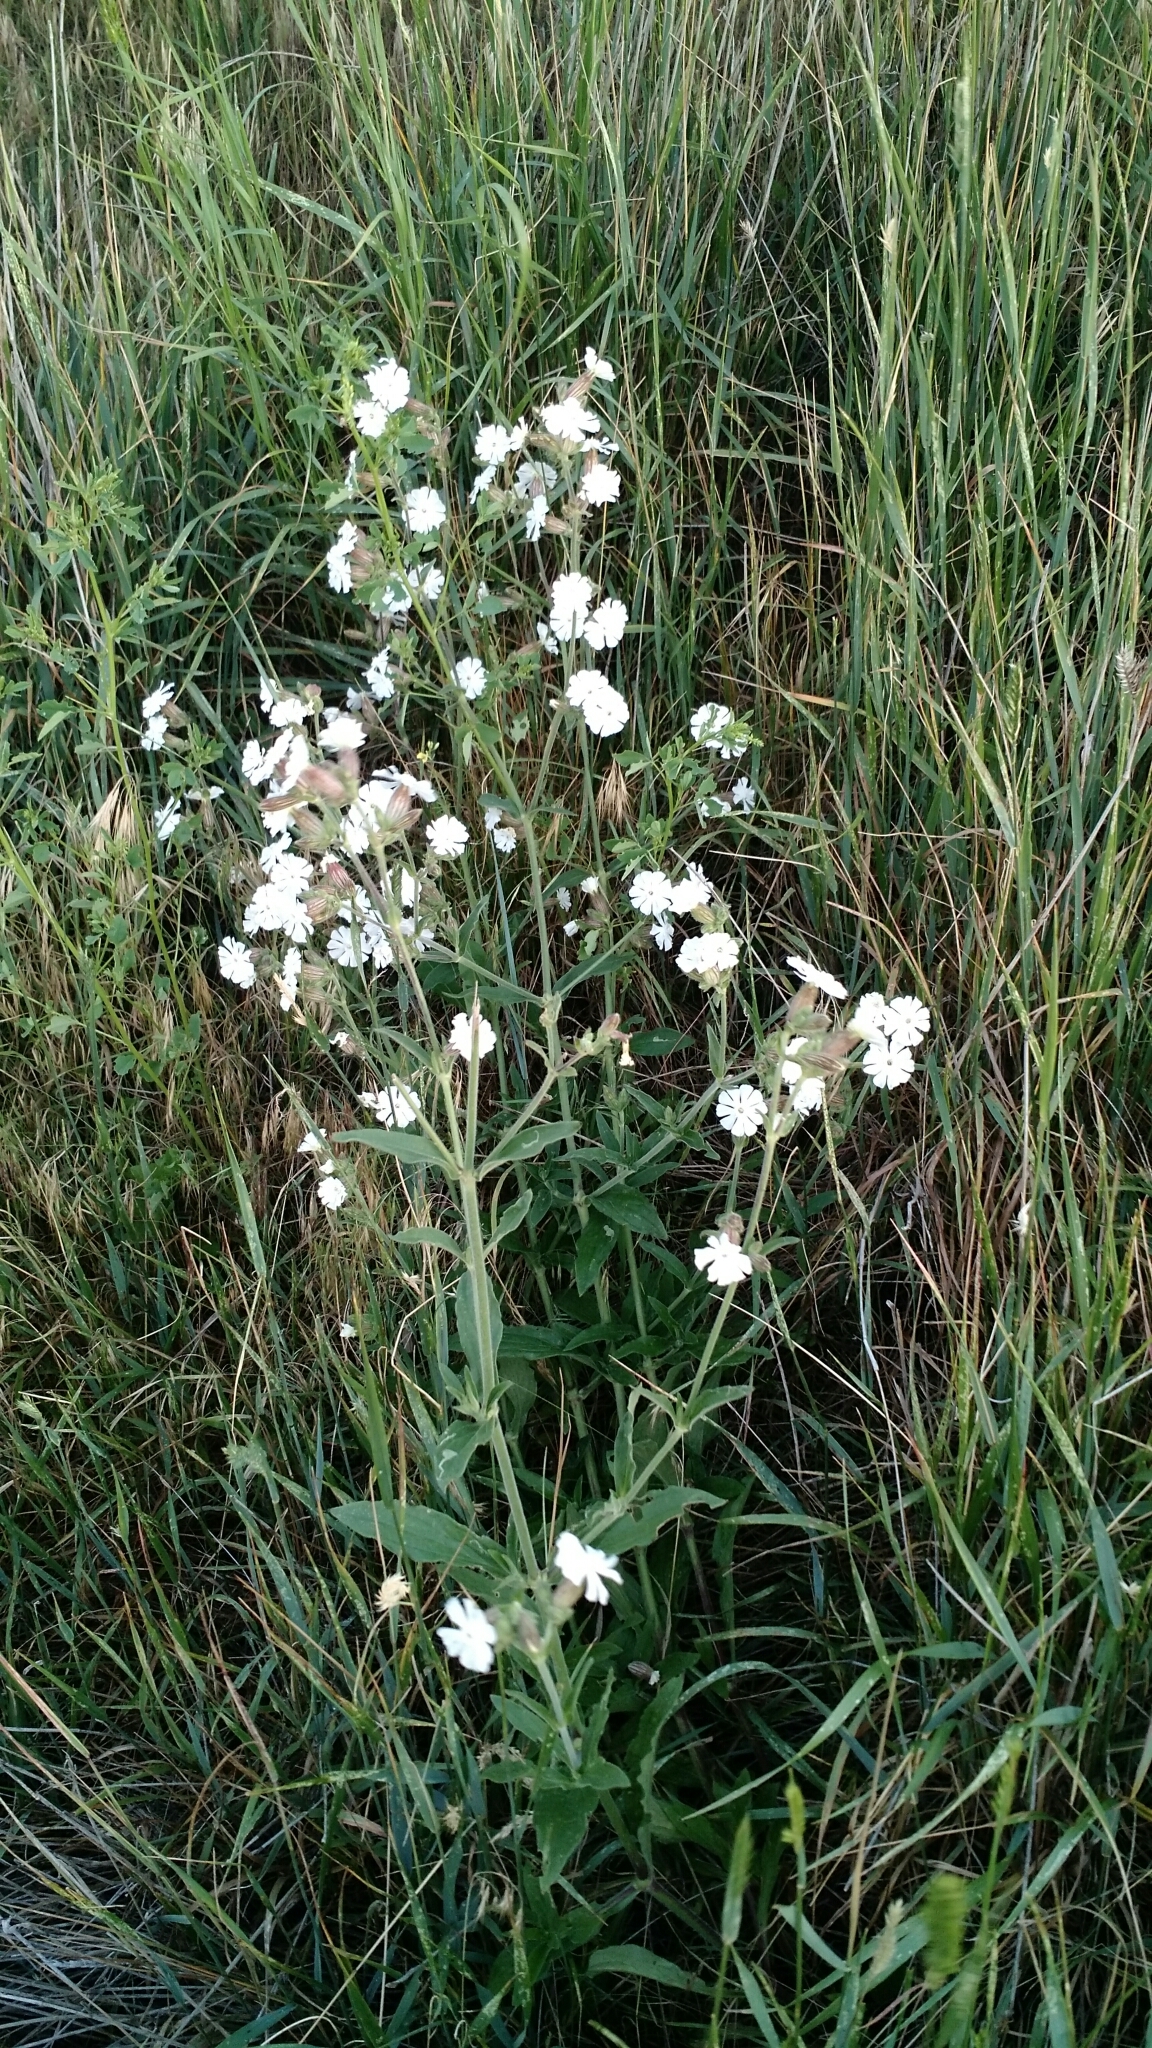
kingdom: Plantae
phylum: Tracheophyta
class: Magnoliopsida
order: Caryophyllales
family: Caryophyllaceae
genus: Silene
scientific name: Silene latifolia
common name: White campion
